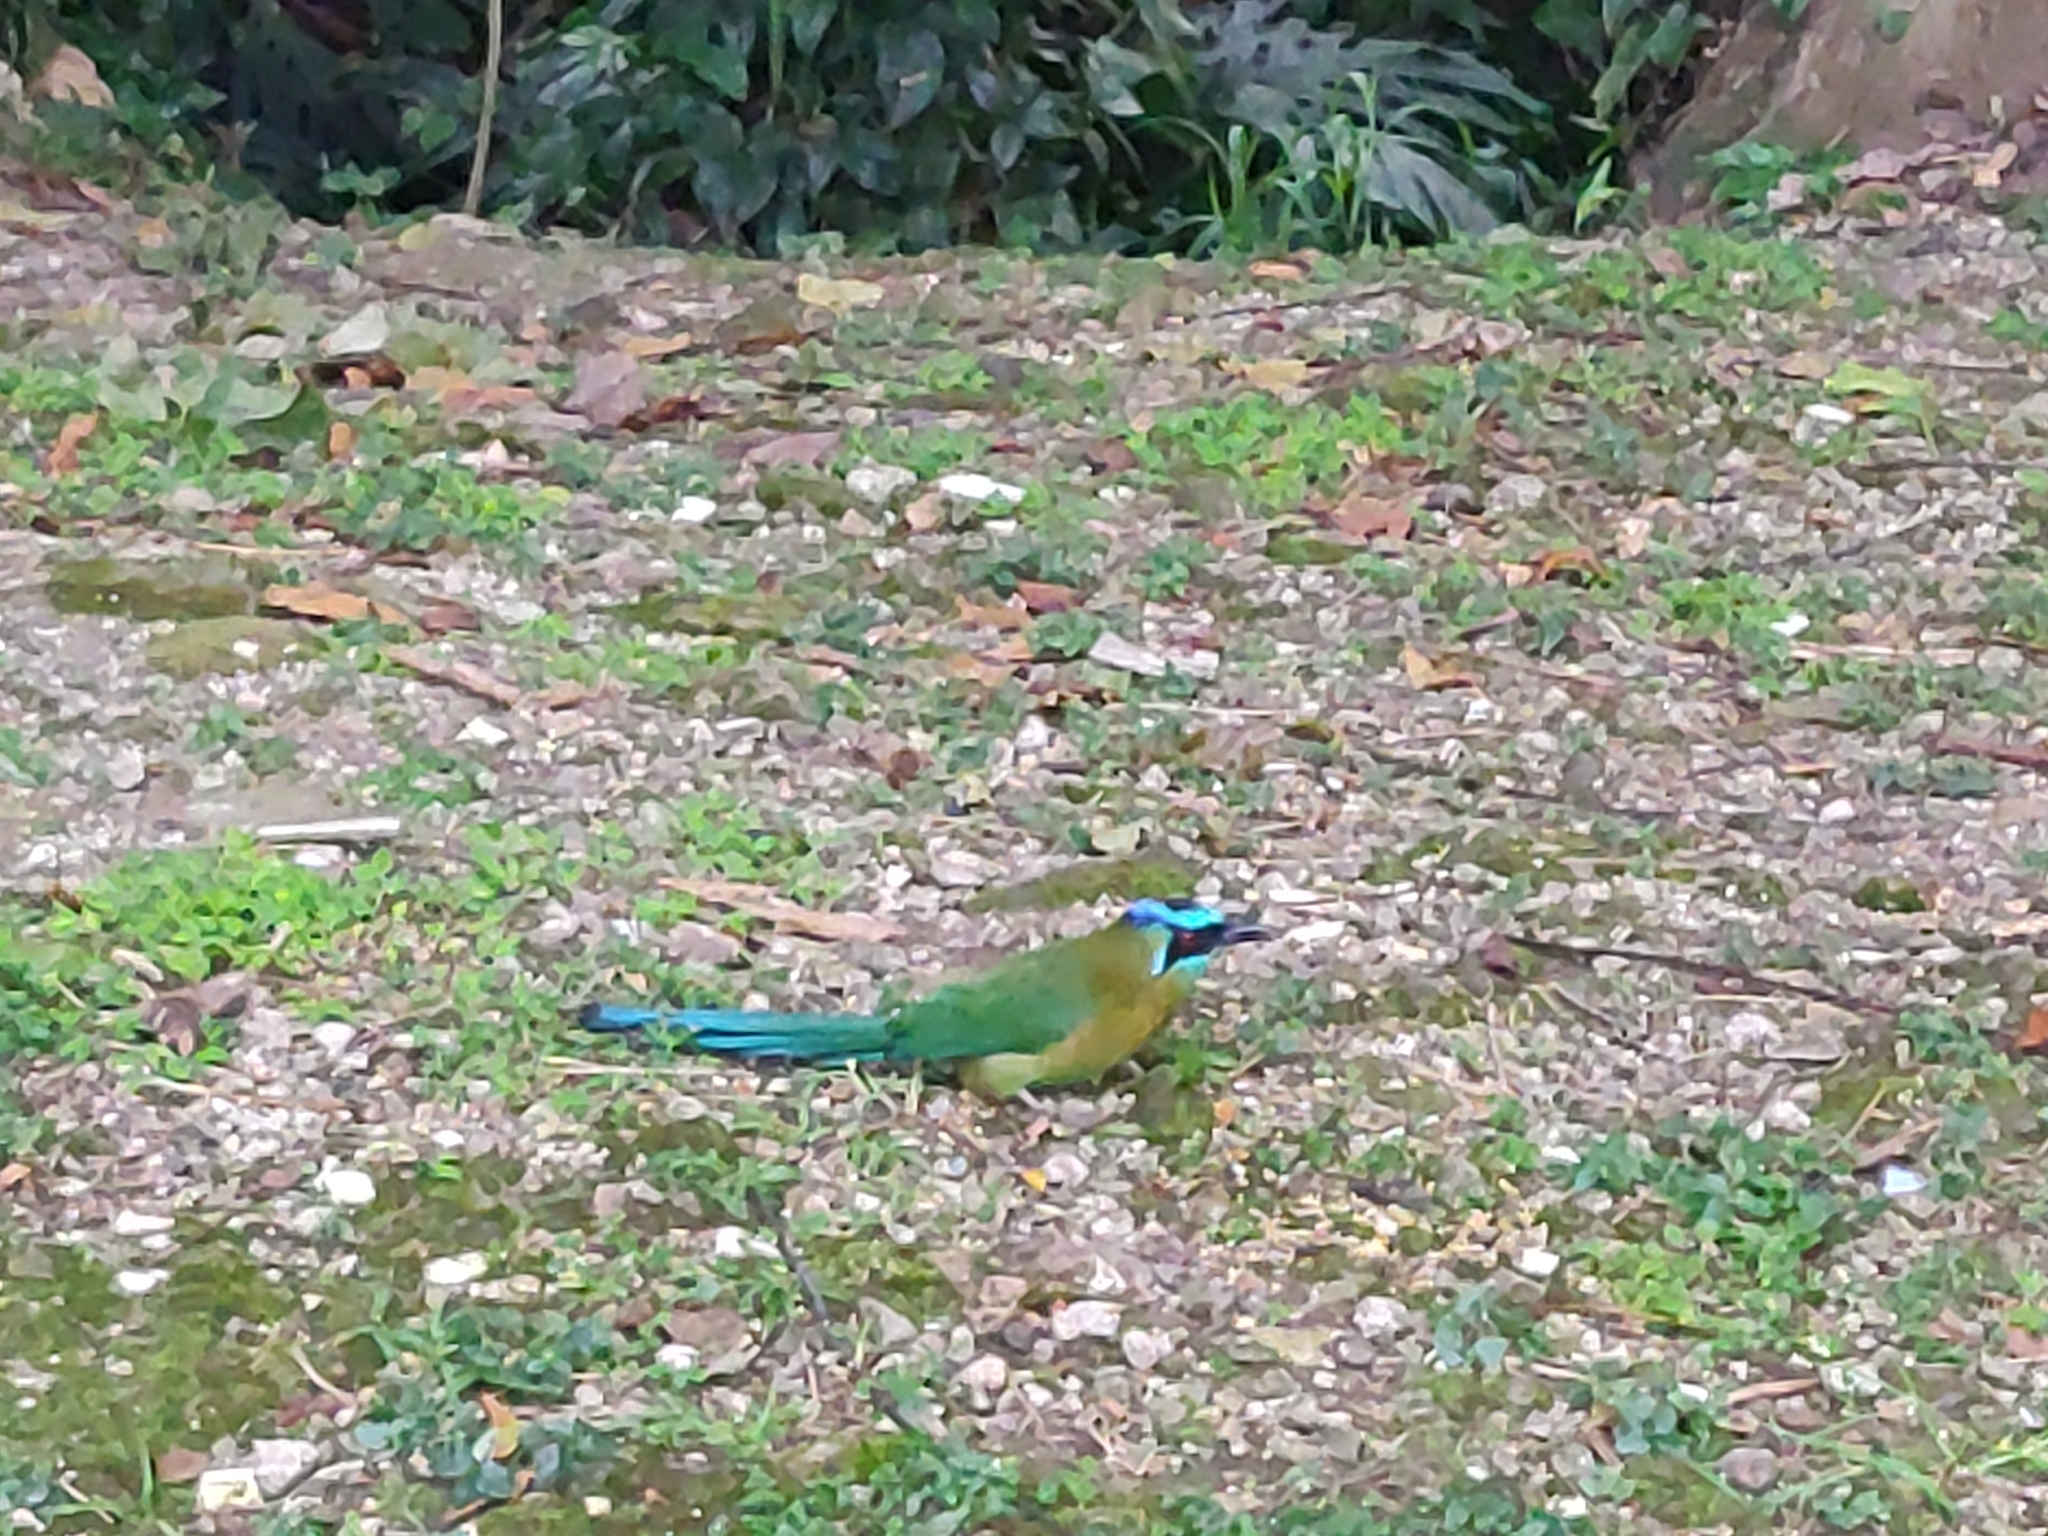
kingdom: Animalia
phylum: Chordata
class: Aves
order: Coraciiformes
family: Momotidae
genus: Momotus
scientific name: Momotus lessonii
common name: Lesson's motmot
